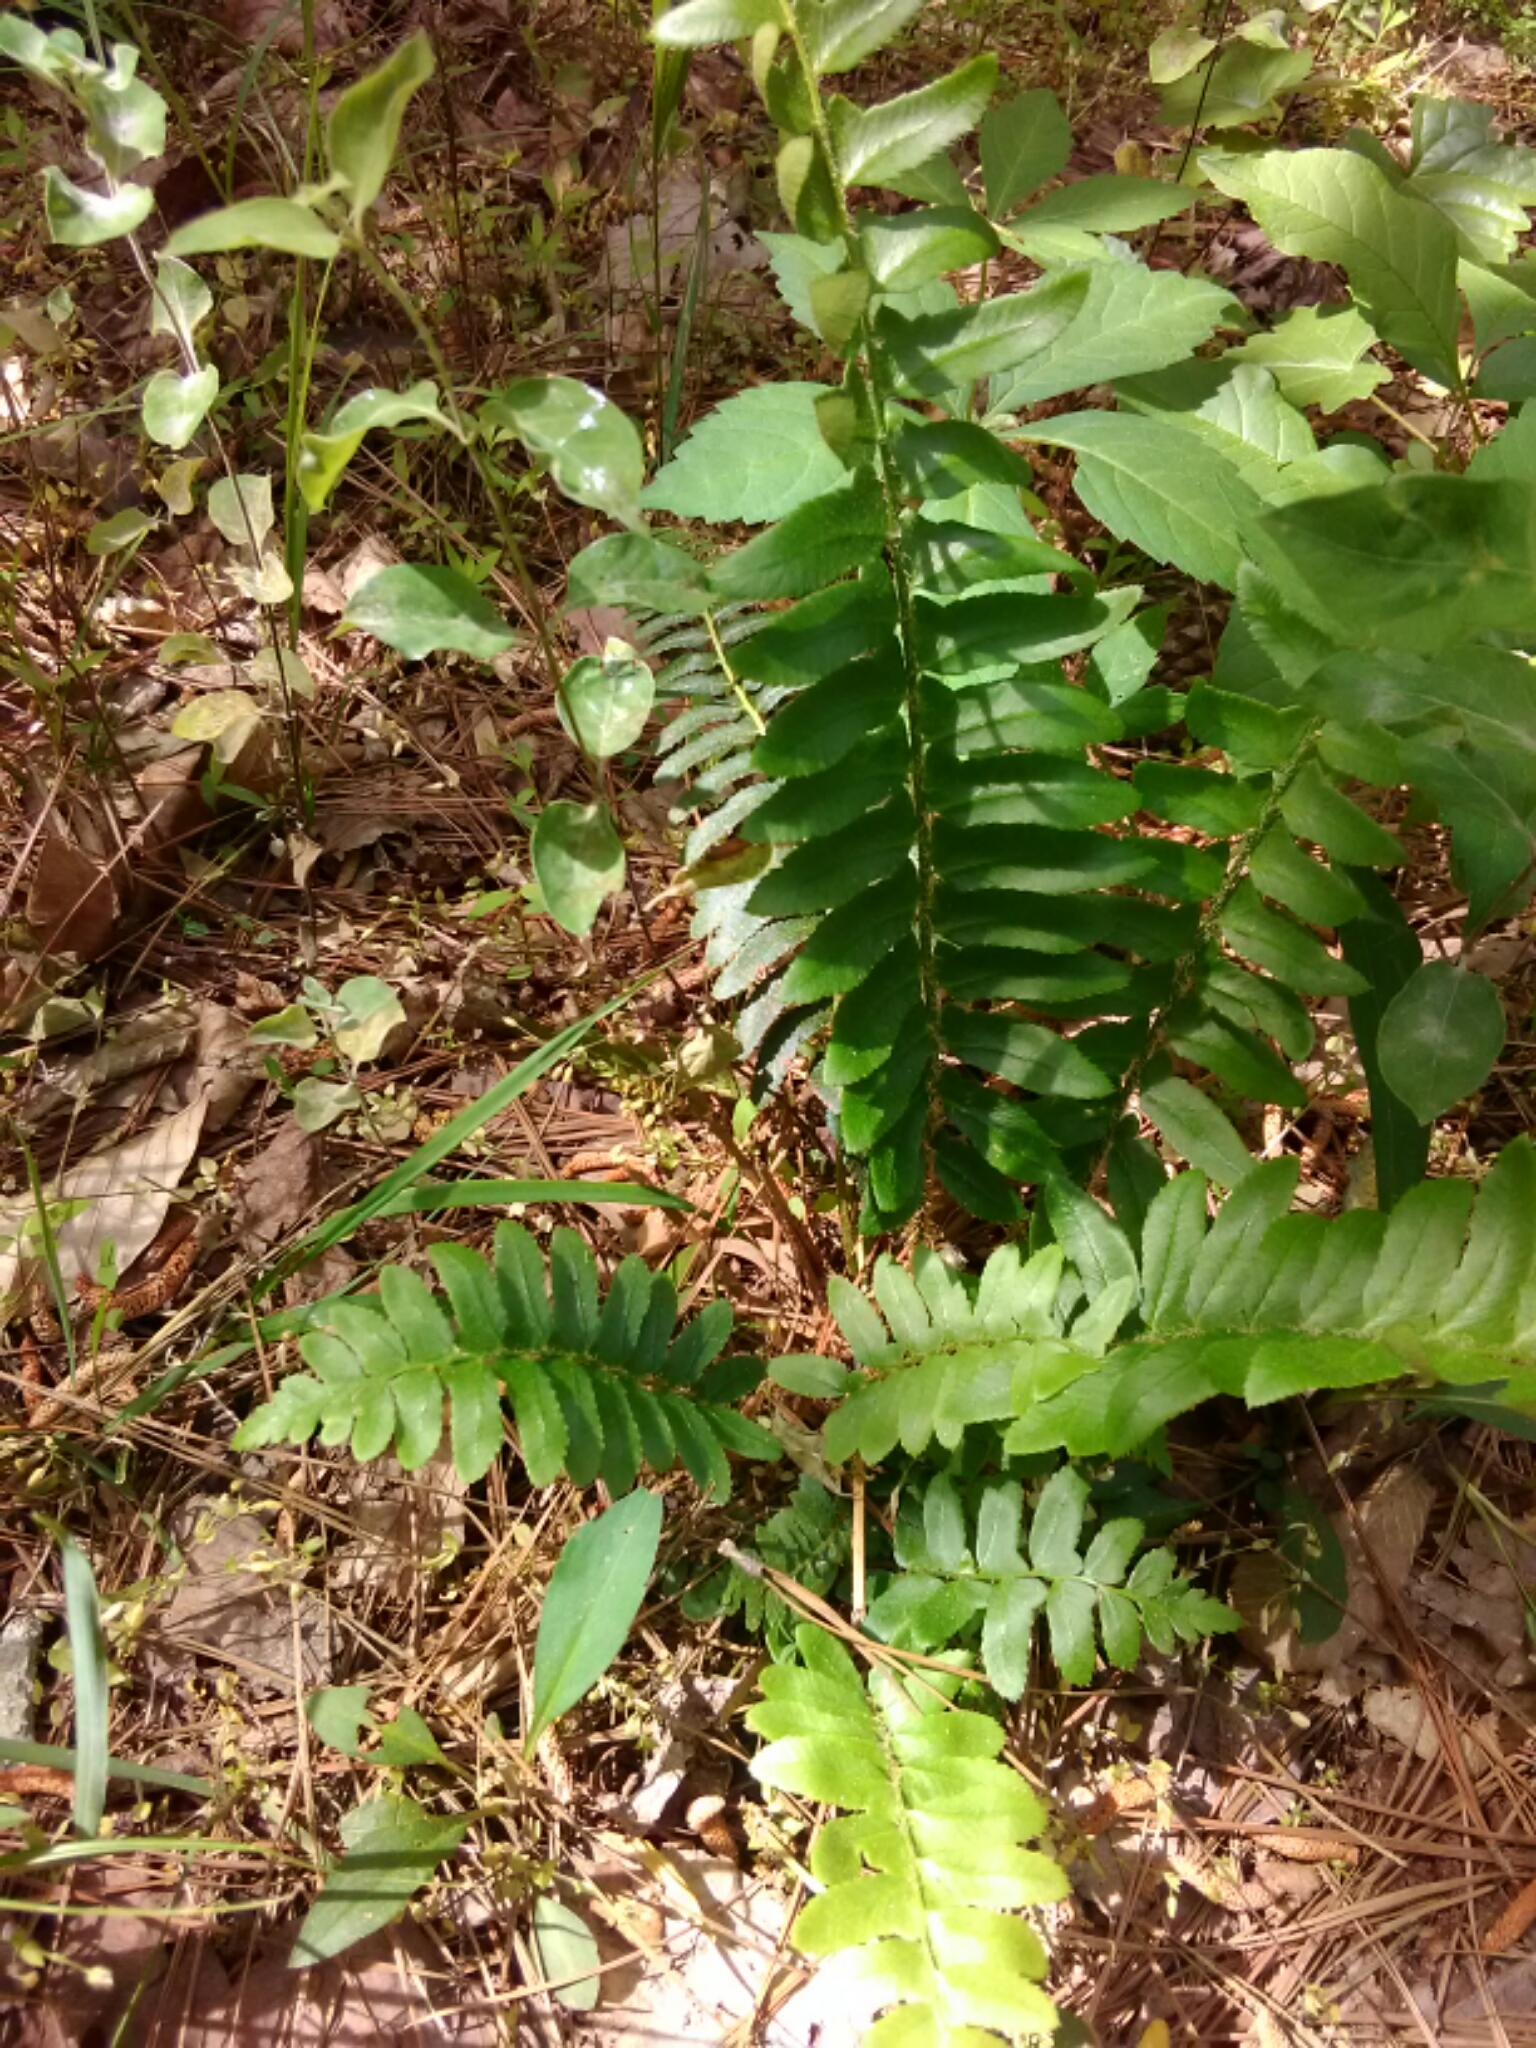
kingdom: Plantae
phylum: Tracheophyta
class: Polypodiopsida
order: Polypodiales
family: Dryopteridaceae
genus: Polystichum
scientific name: Polystichum acrostichoides
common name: Christmas fern
